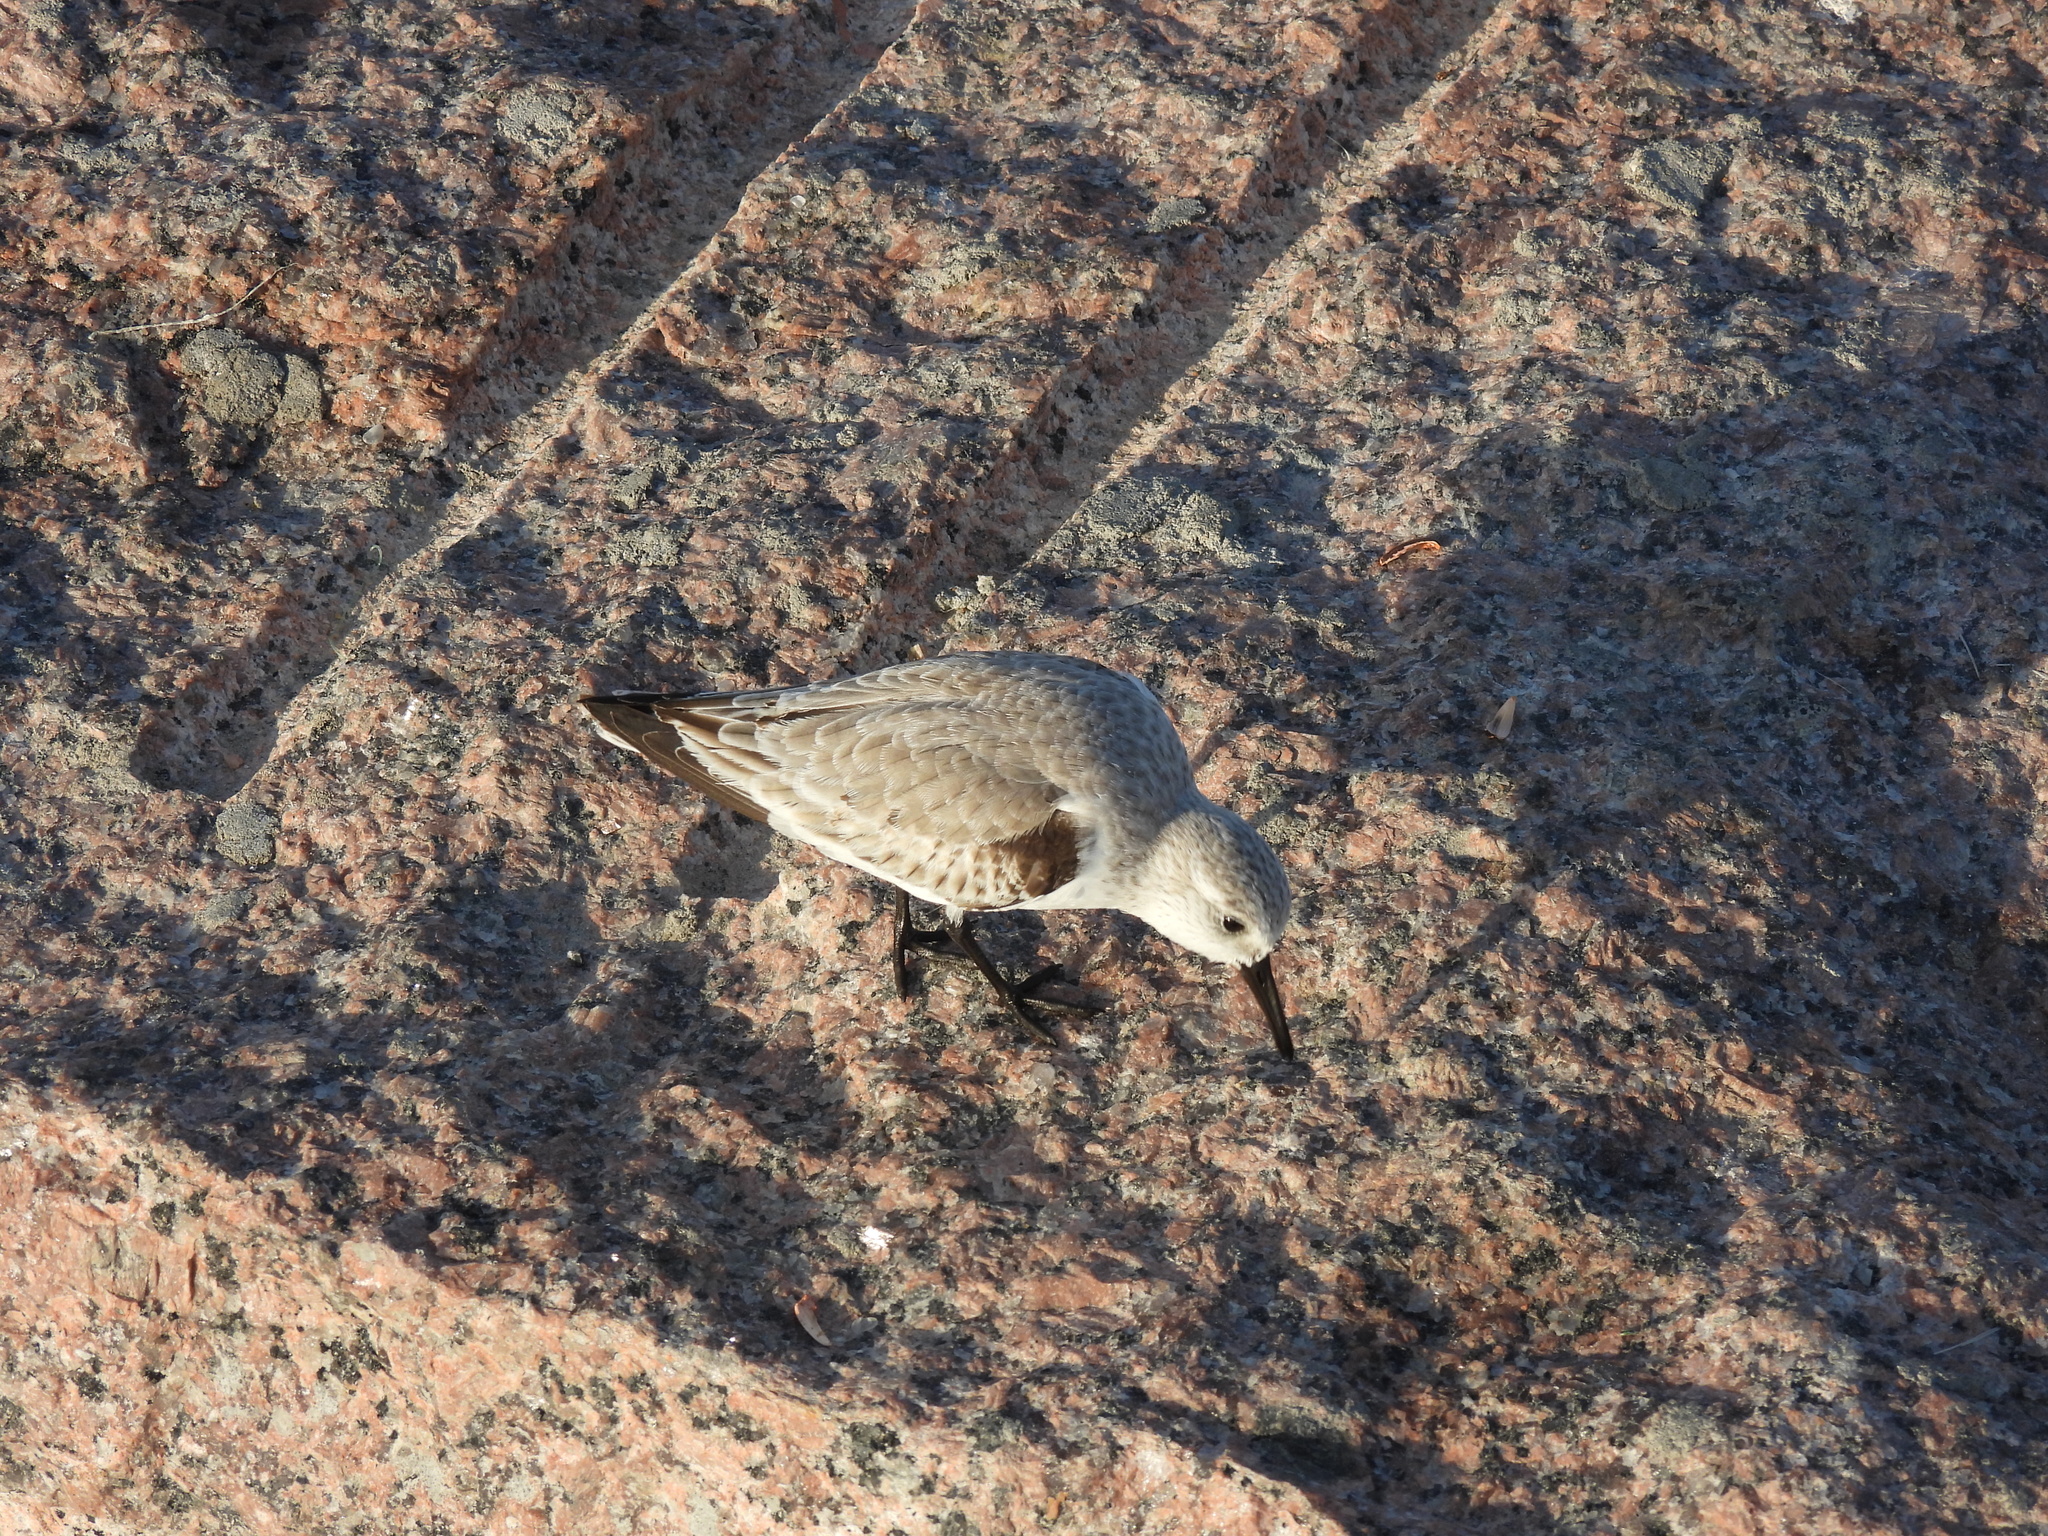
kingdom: Animalia
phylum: Chordata
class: Aves
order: Charadriiformes
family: Scolopacidae
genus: Calidris
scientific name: Calidris alba
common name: Sanderling
